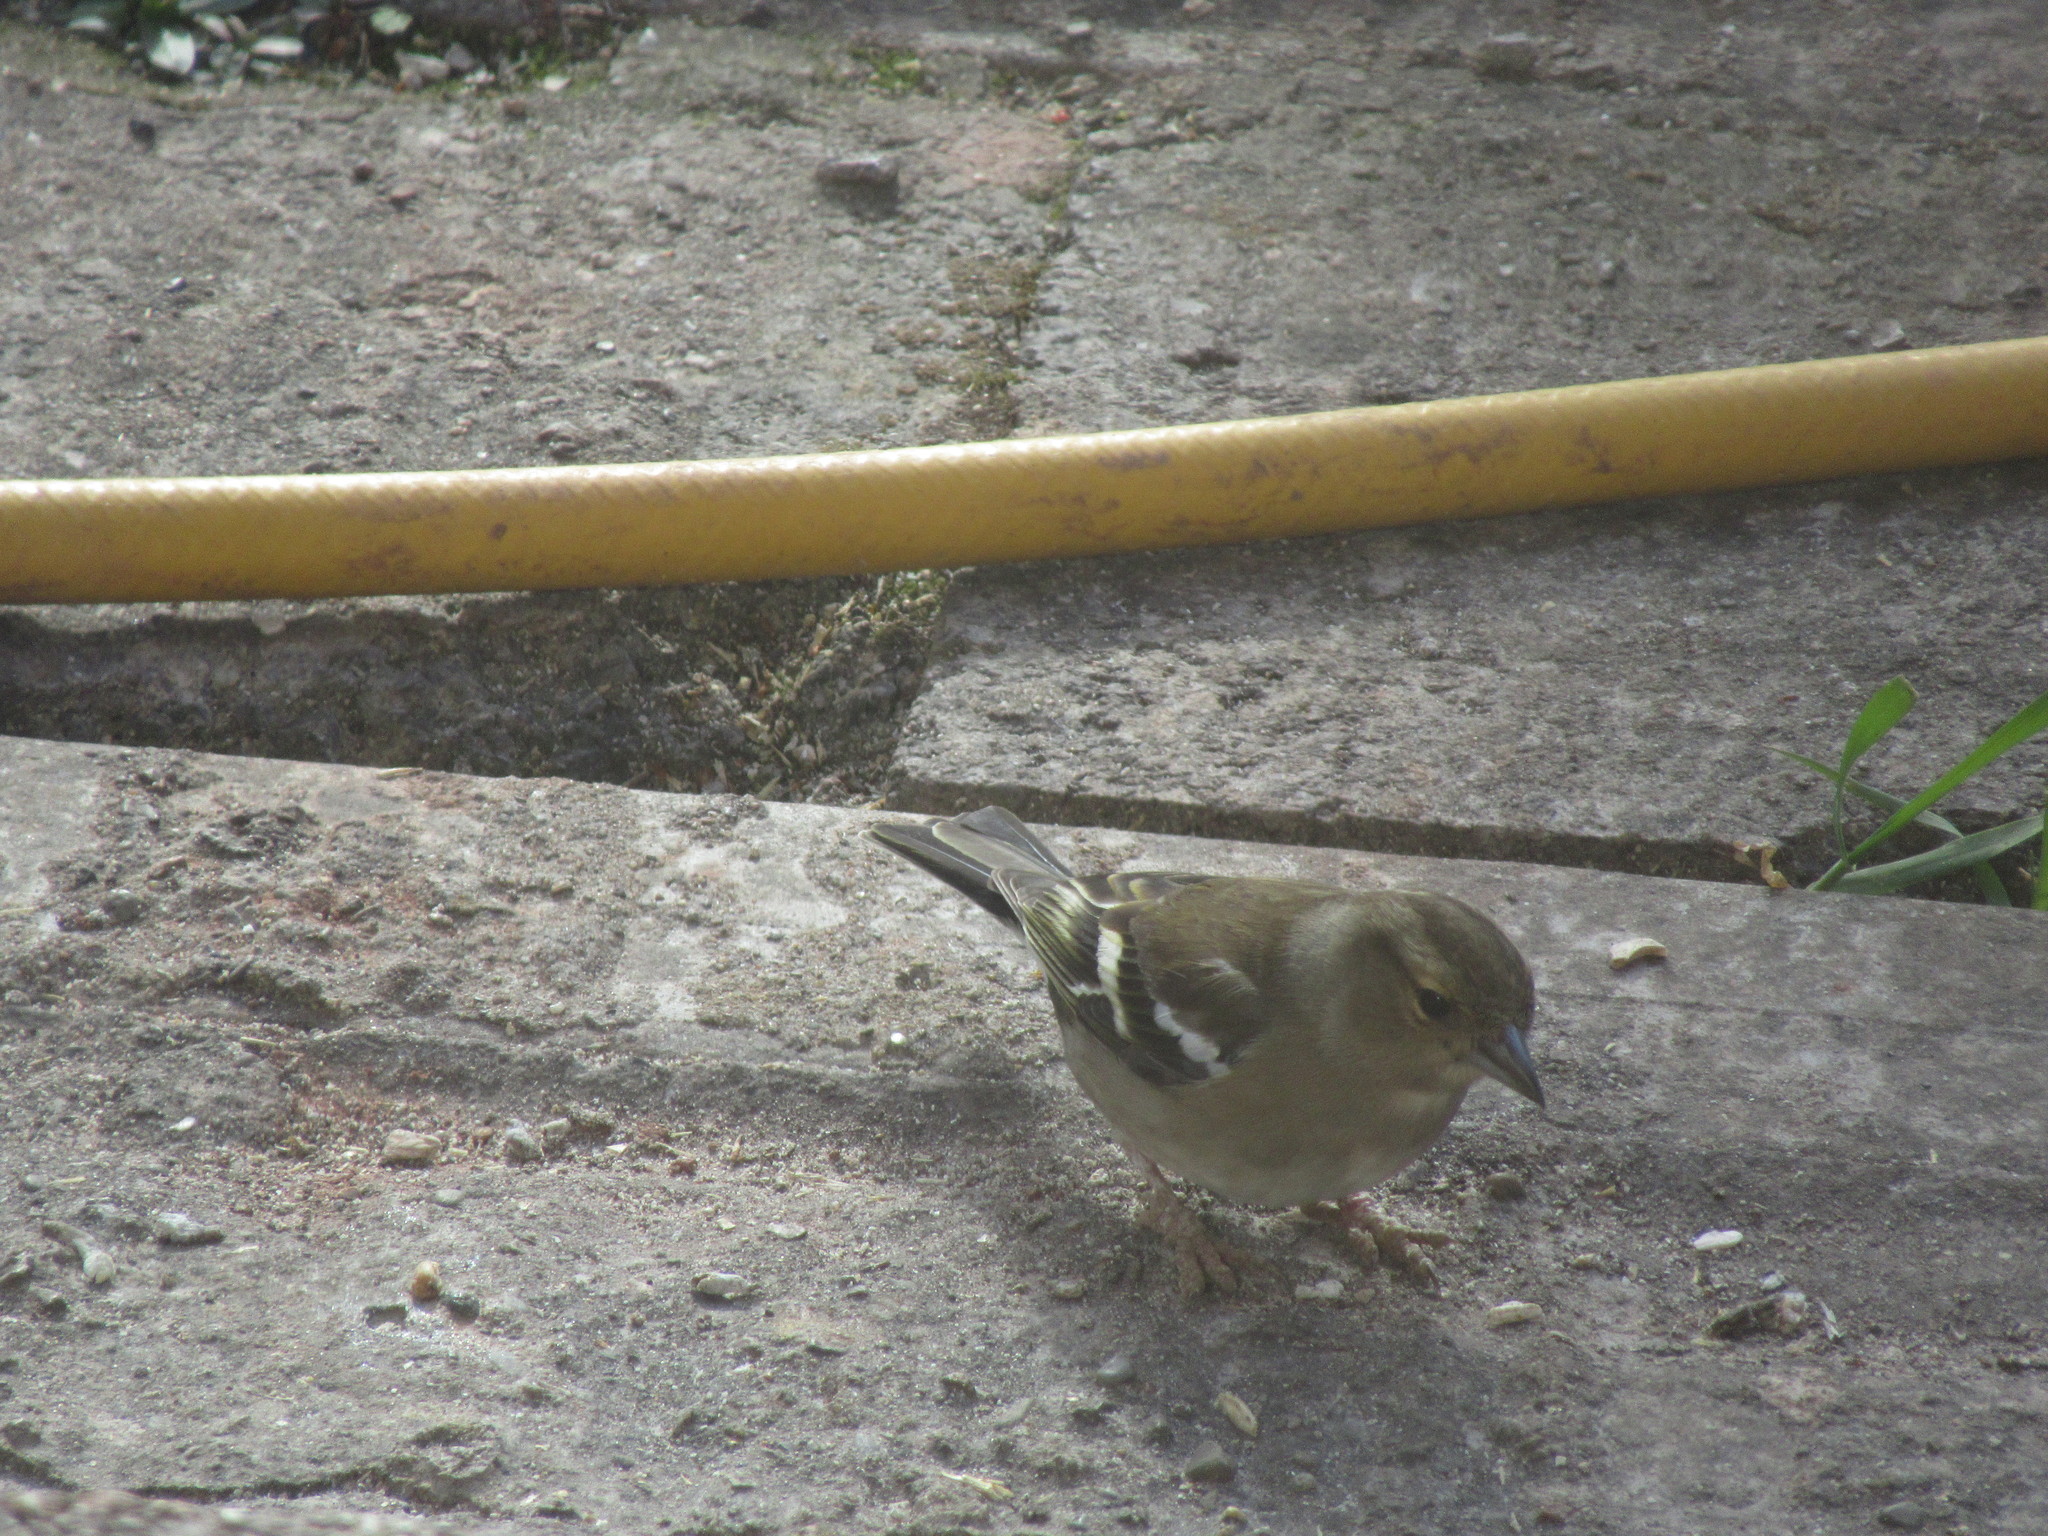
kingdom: Animalia
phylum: Chordata
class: Aves
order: Passeriformes
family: Fringillidae
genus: Fringilla
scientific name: Fringilla coelebs
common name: Common chaffinch
